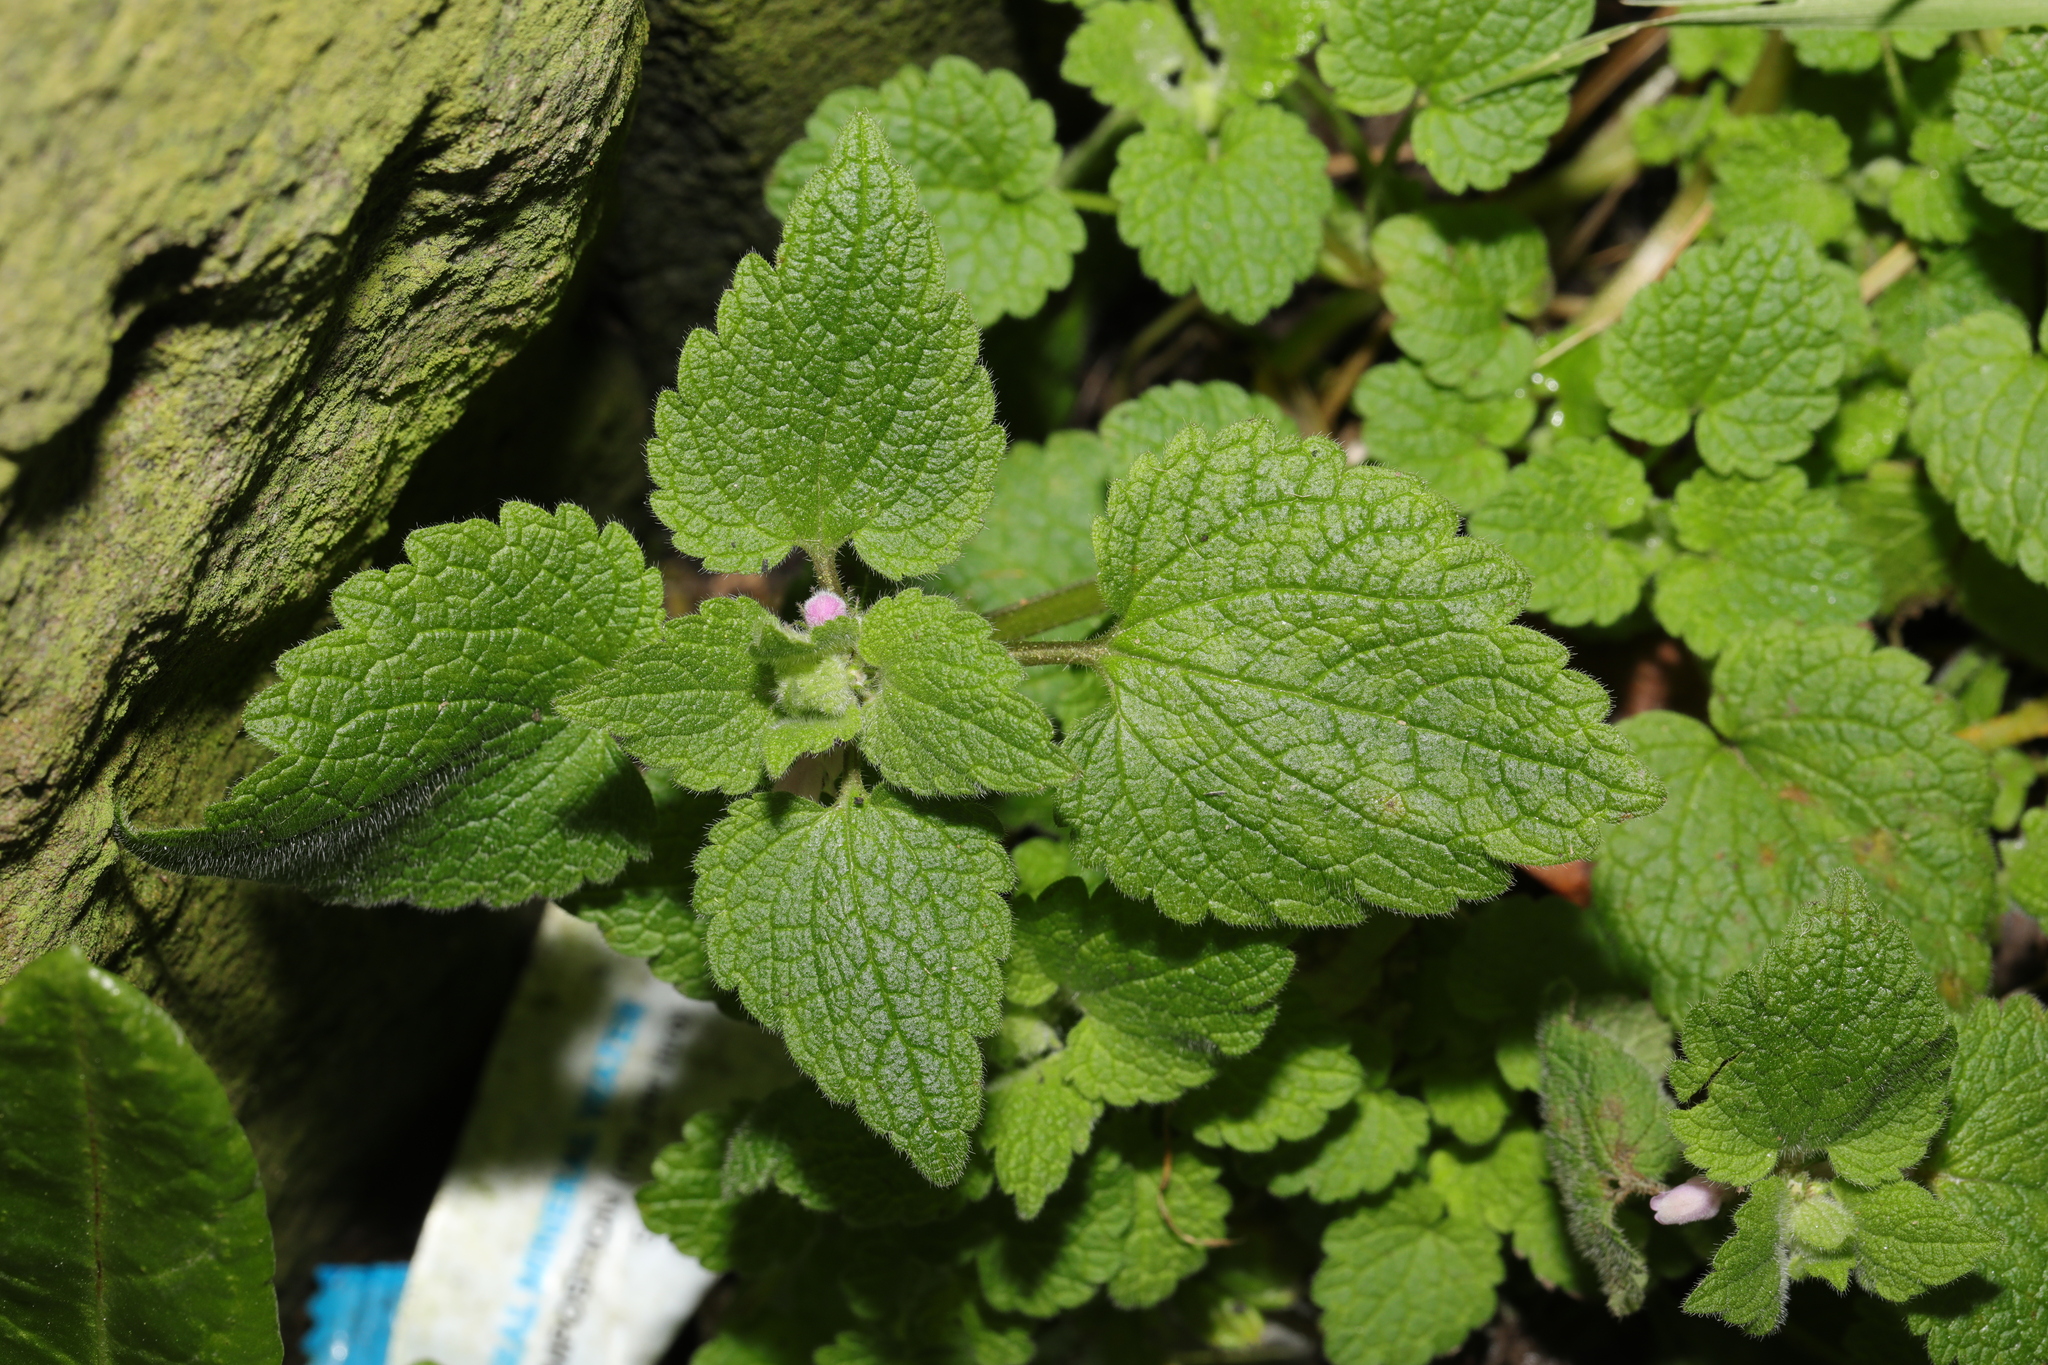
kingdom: Plantae
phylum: Tracheophyta
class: Magnoliopsida
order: Lamiales
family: Lamiaceae
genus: Lamium
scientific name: Lamium purpureum
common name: Red dead-nettle
